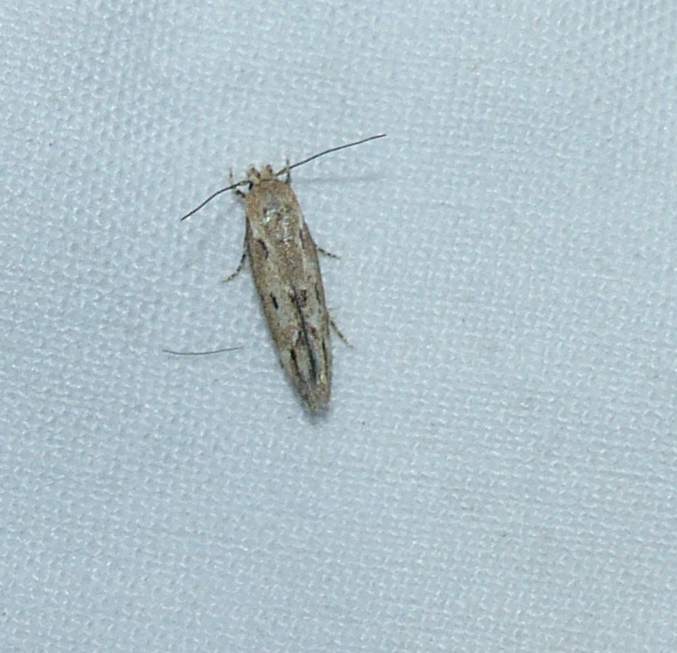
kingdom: Animalia
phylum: Arthropoda
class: Insecta
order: Lepidoptera
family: Momphidae
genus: Mompha
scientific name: Mompha brevivittella
